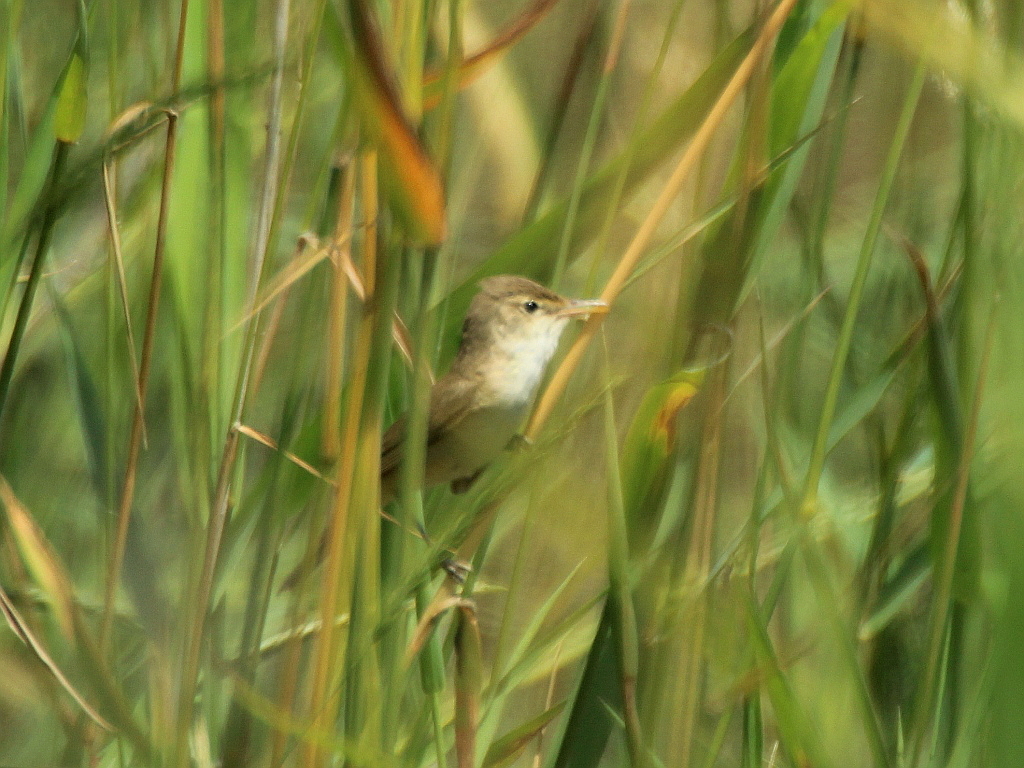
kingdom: Animalia
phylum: Chordata
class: Aves
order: Passeriformes
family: Acrocephalidae
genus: Acrocephalus
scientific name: Acrocephalus scirpaceus
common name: Eurasian reed warbler
